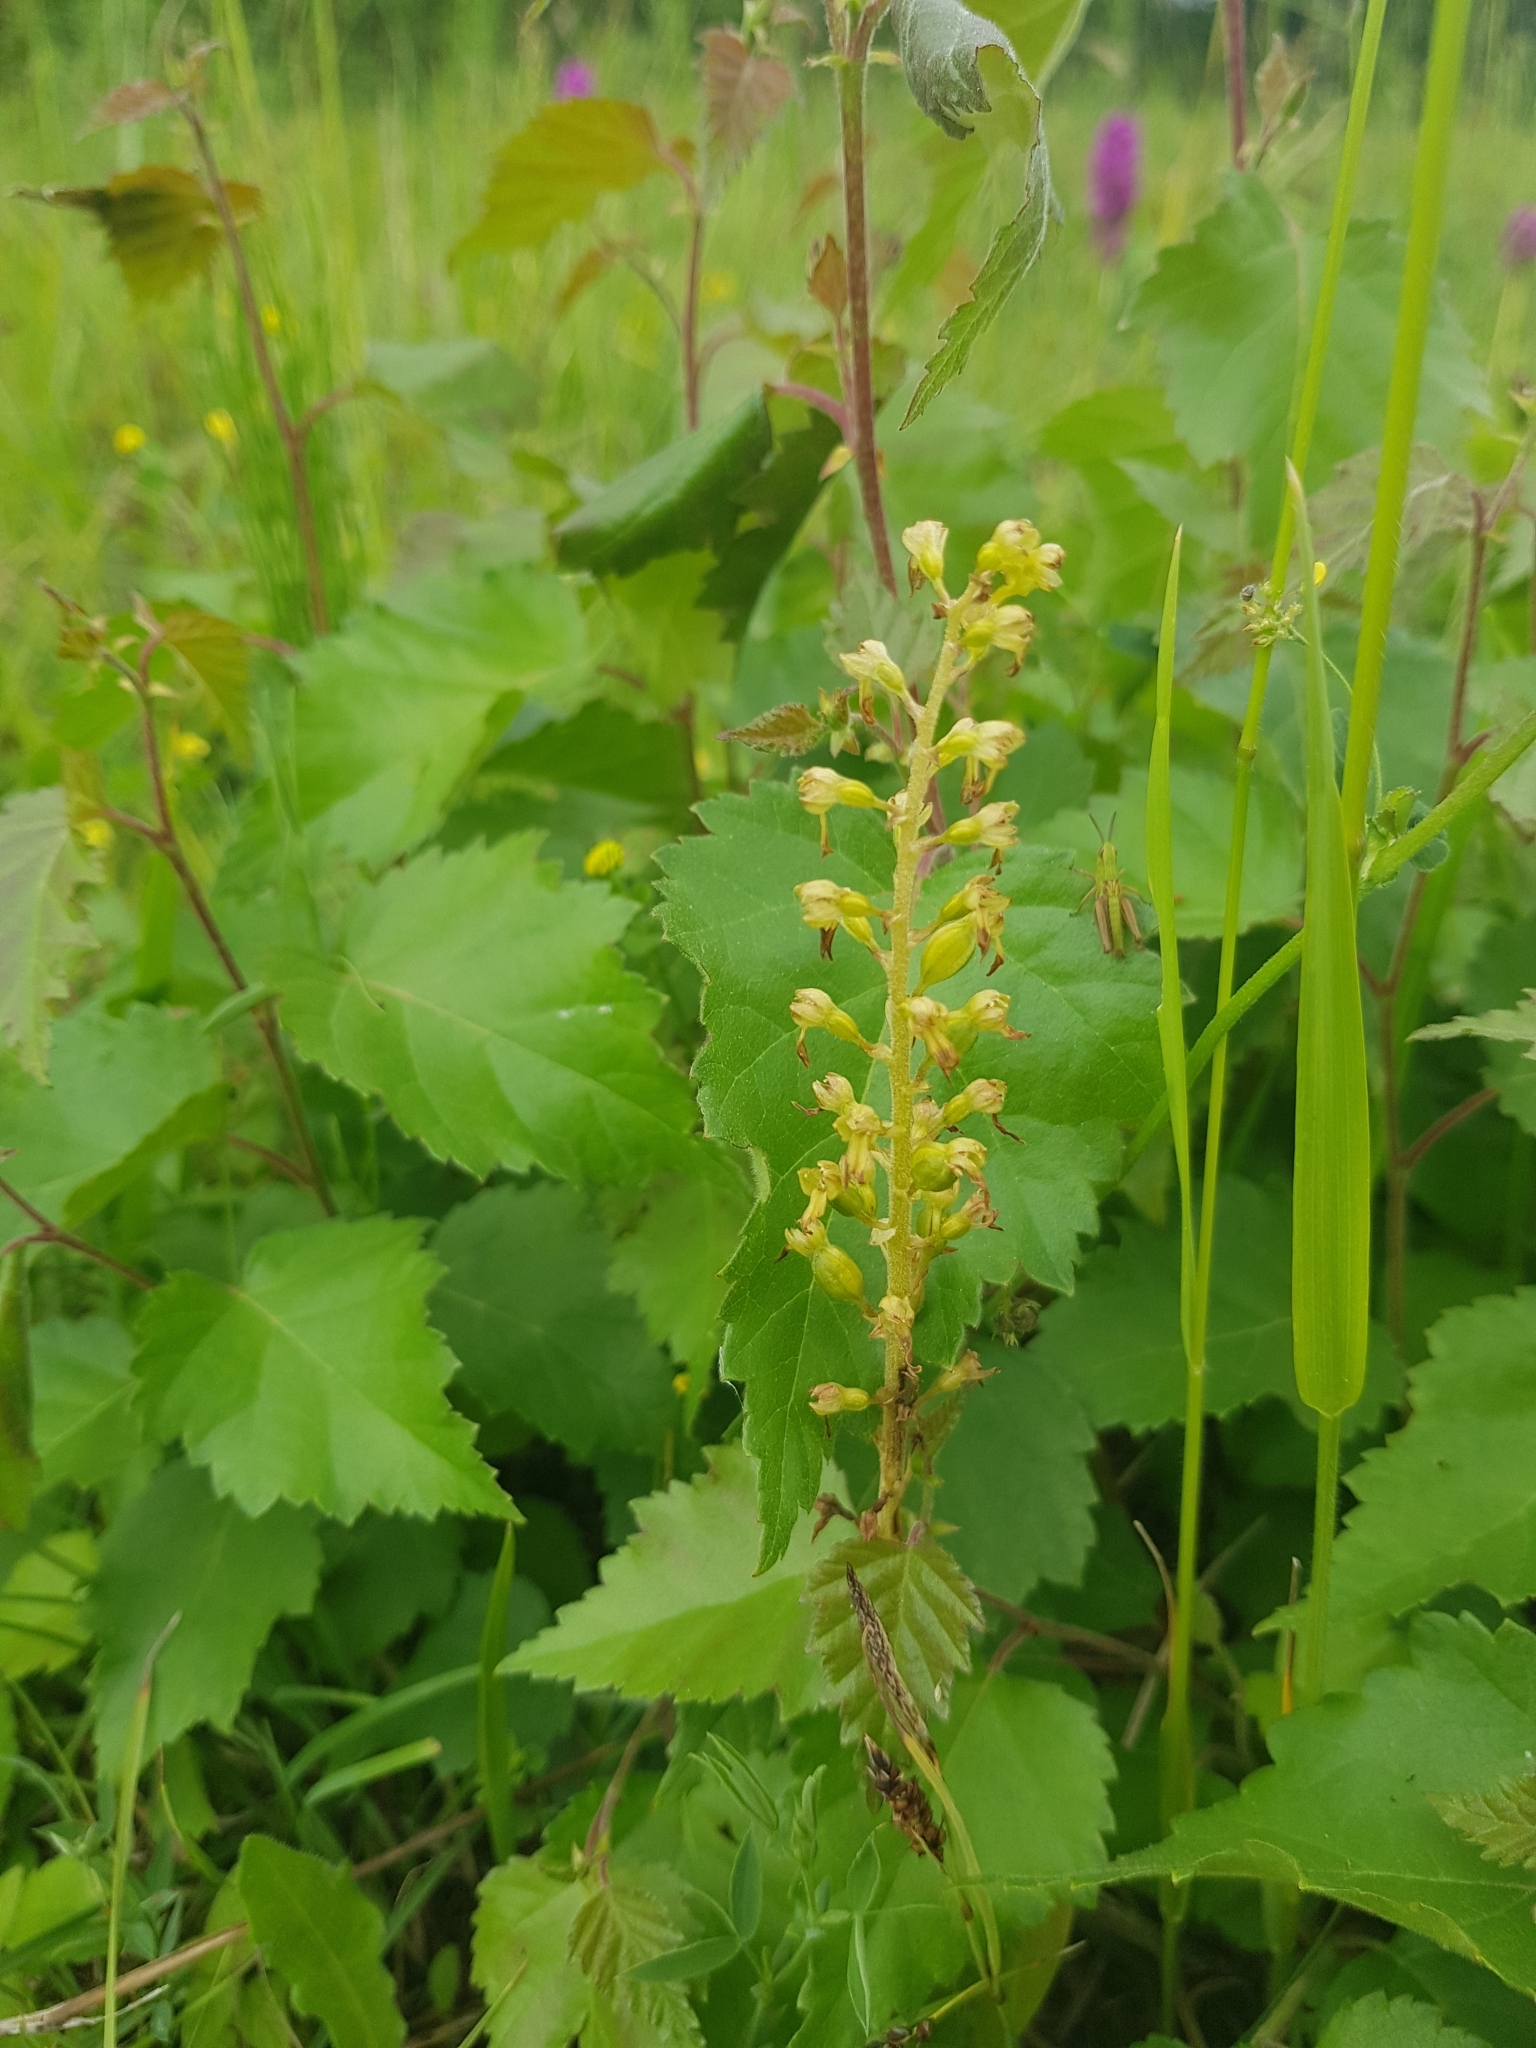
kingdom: Plantae
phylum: Tracheophyta
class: Liliopsida
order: Asparagales
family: Orchidaceae
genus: Neottia
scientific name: Neottia ovata
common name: Common twayblade
